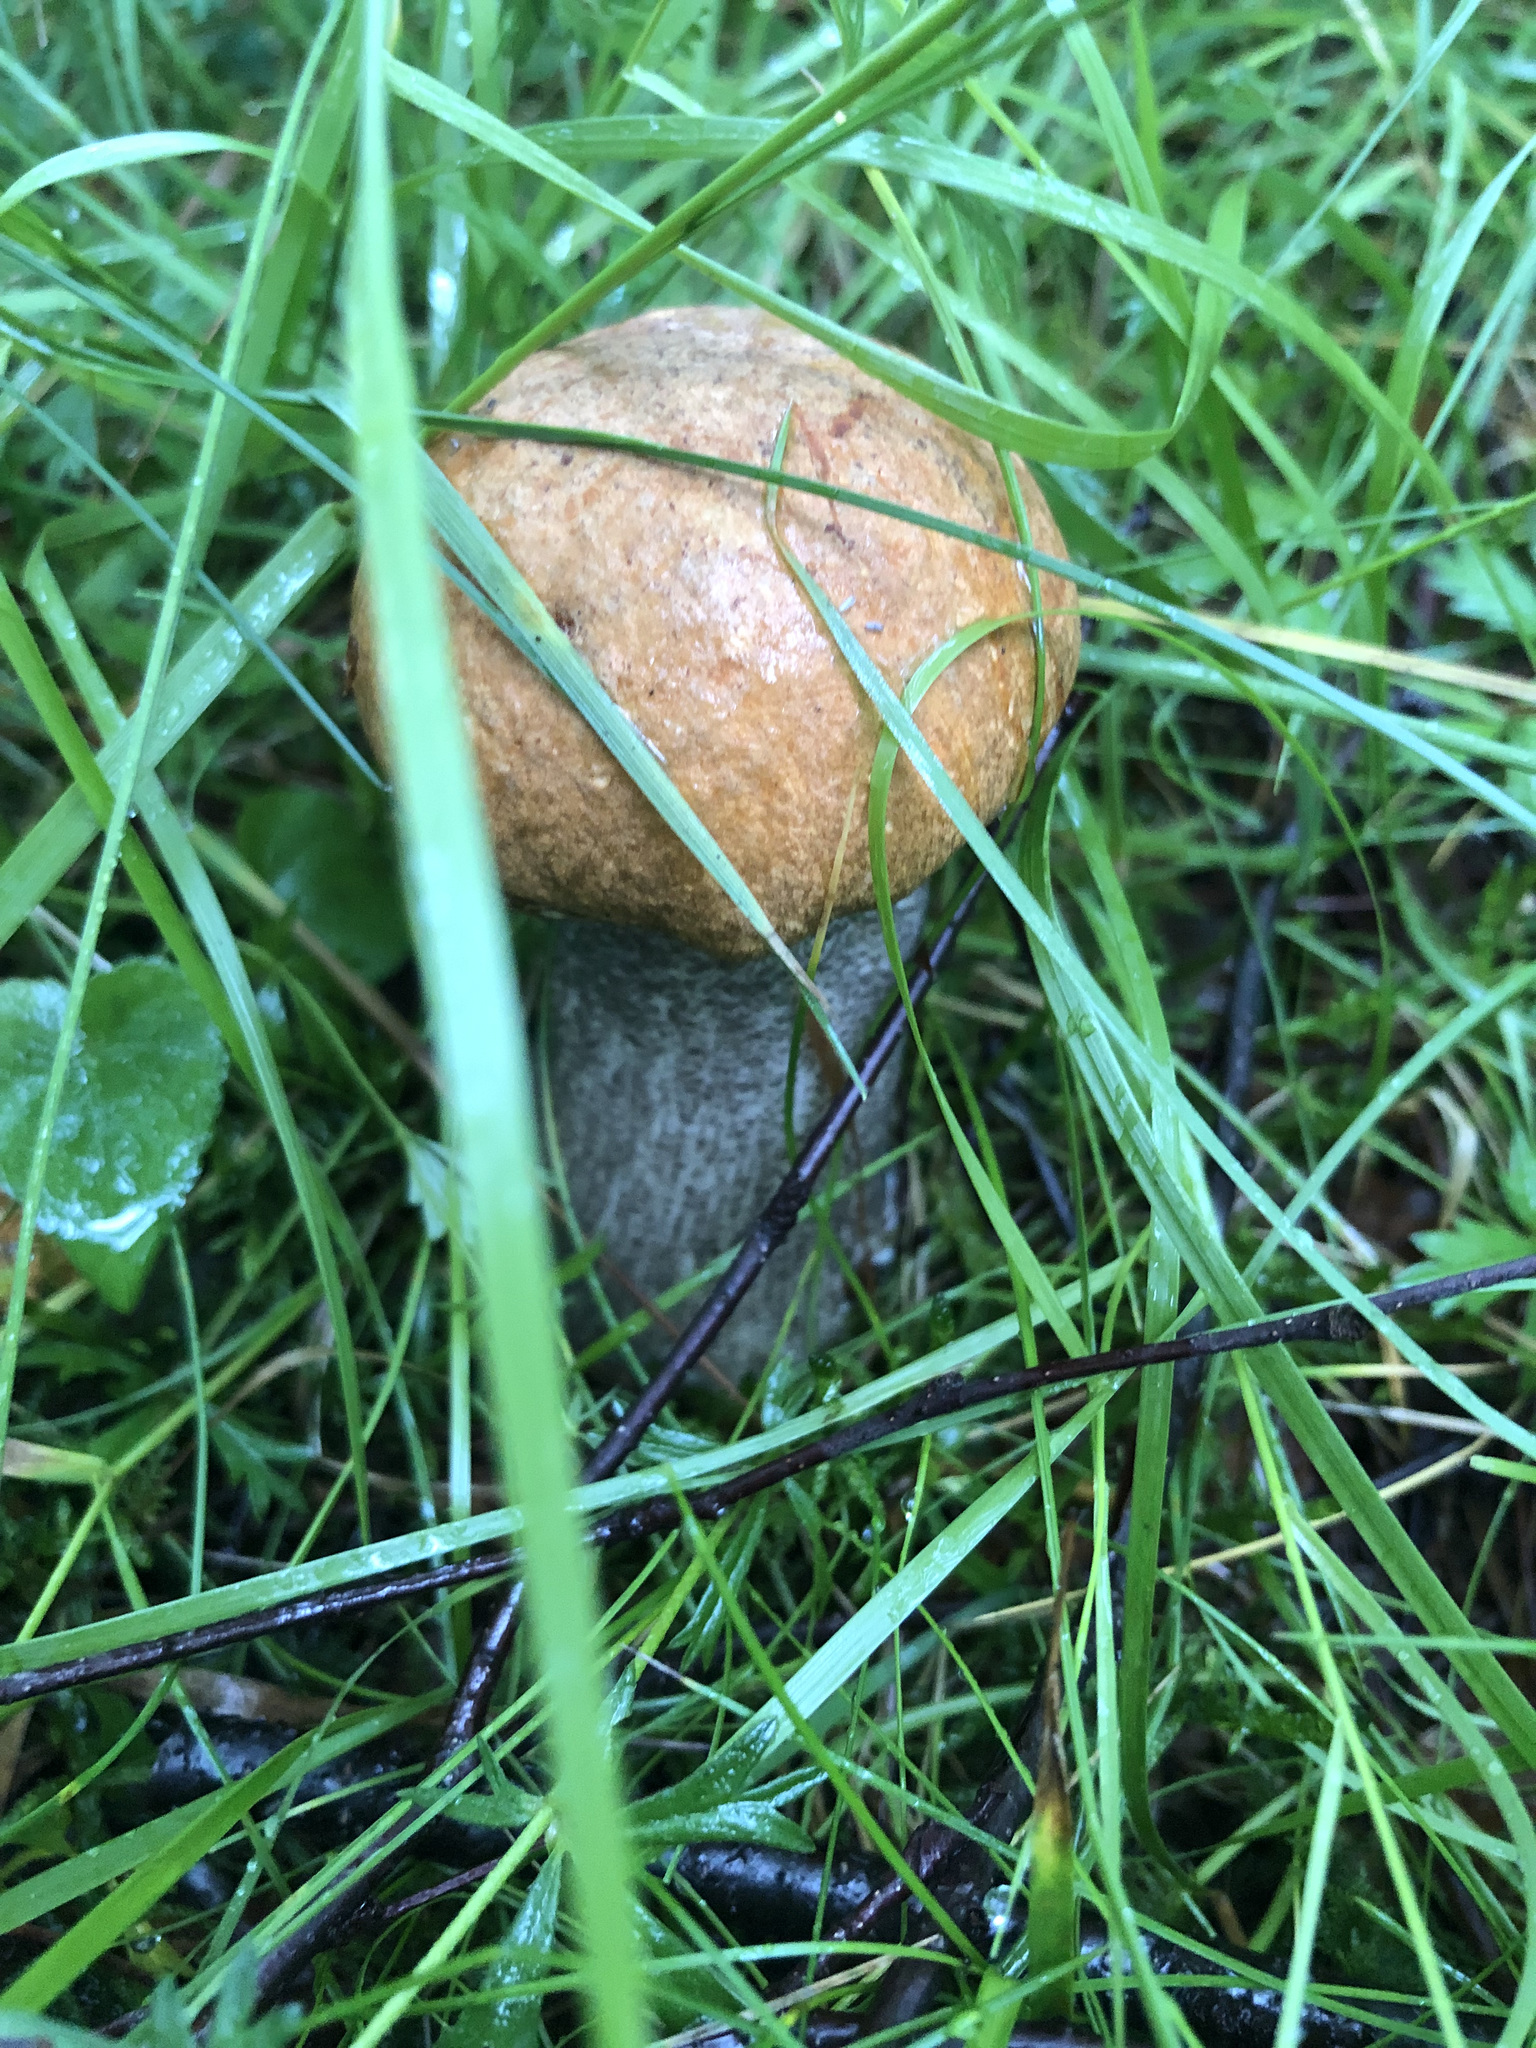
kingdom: Fungi
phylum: Basidiomycota
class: Agaricomycetes
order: Boletales
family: Boletaceae
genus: Leccinum
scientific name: Leccinum versipelle
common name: Orange birch bolete
